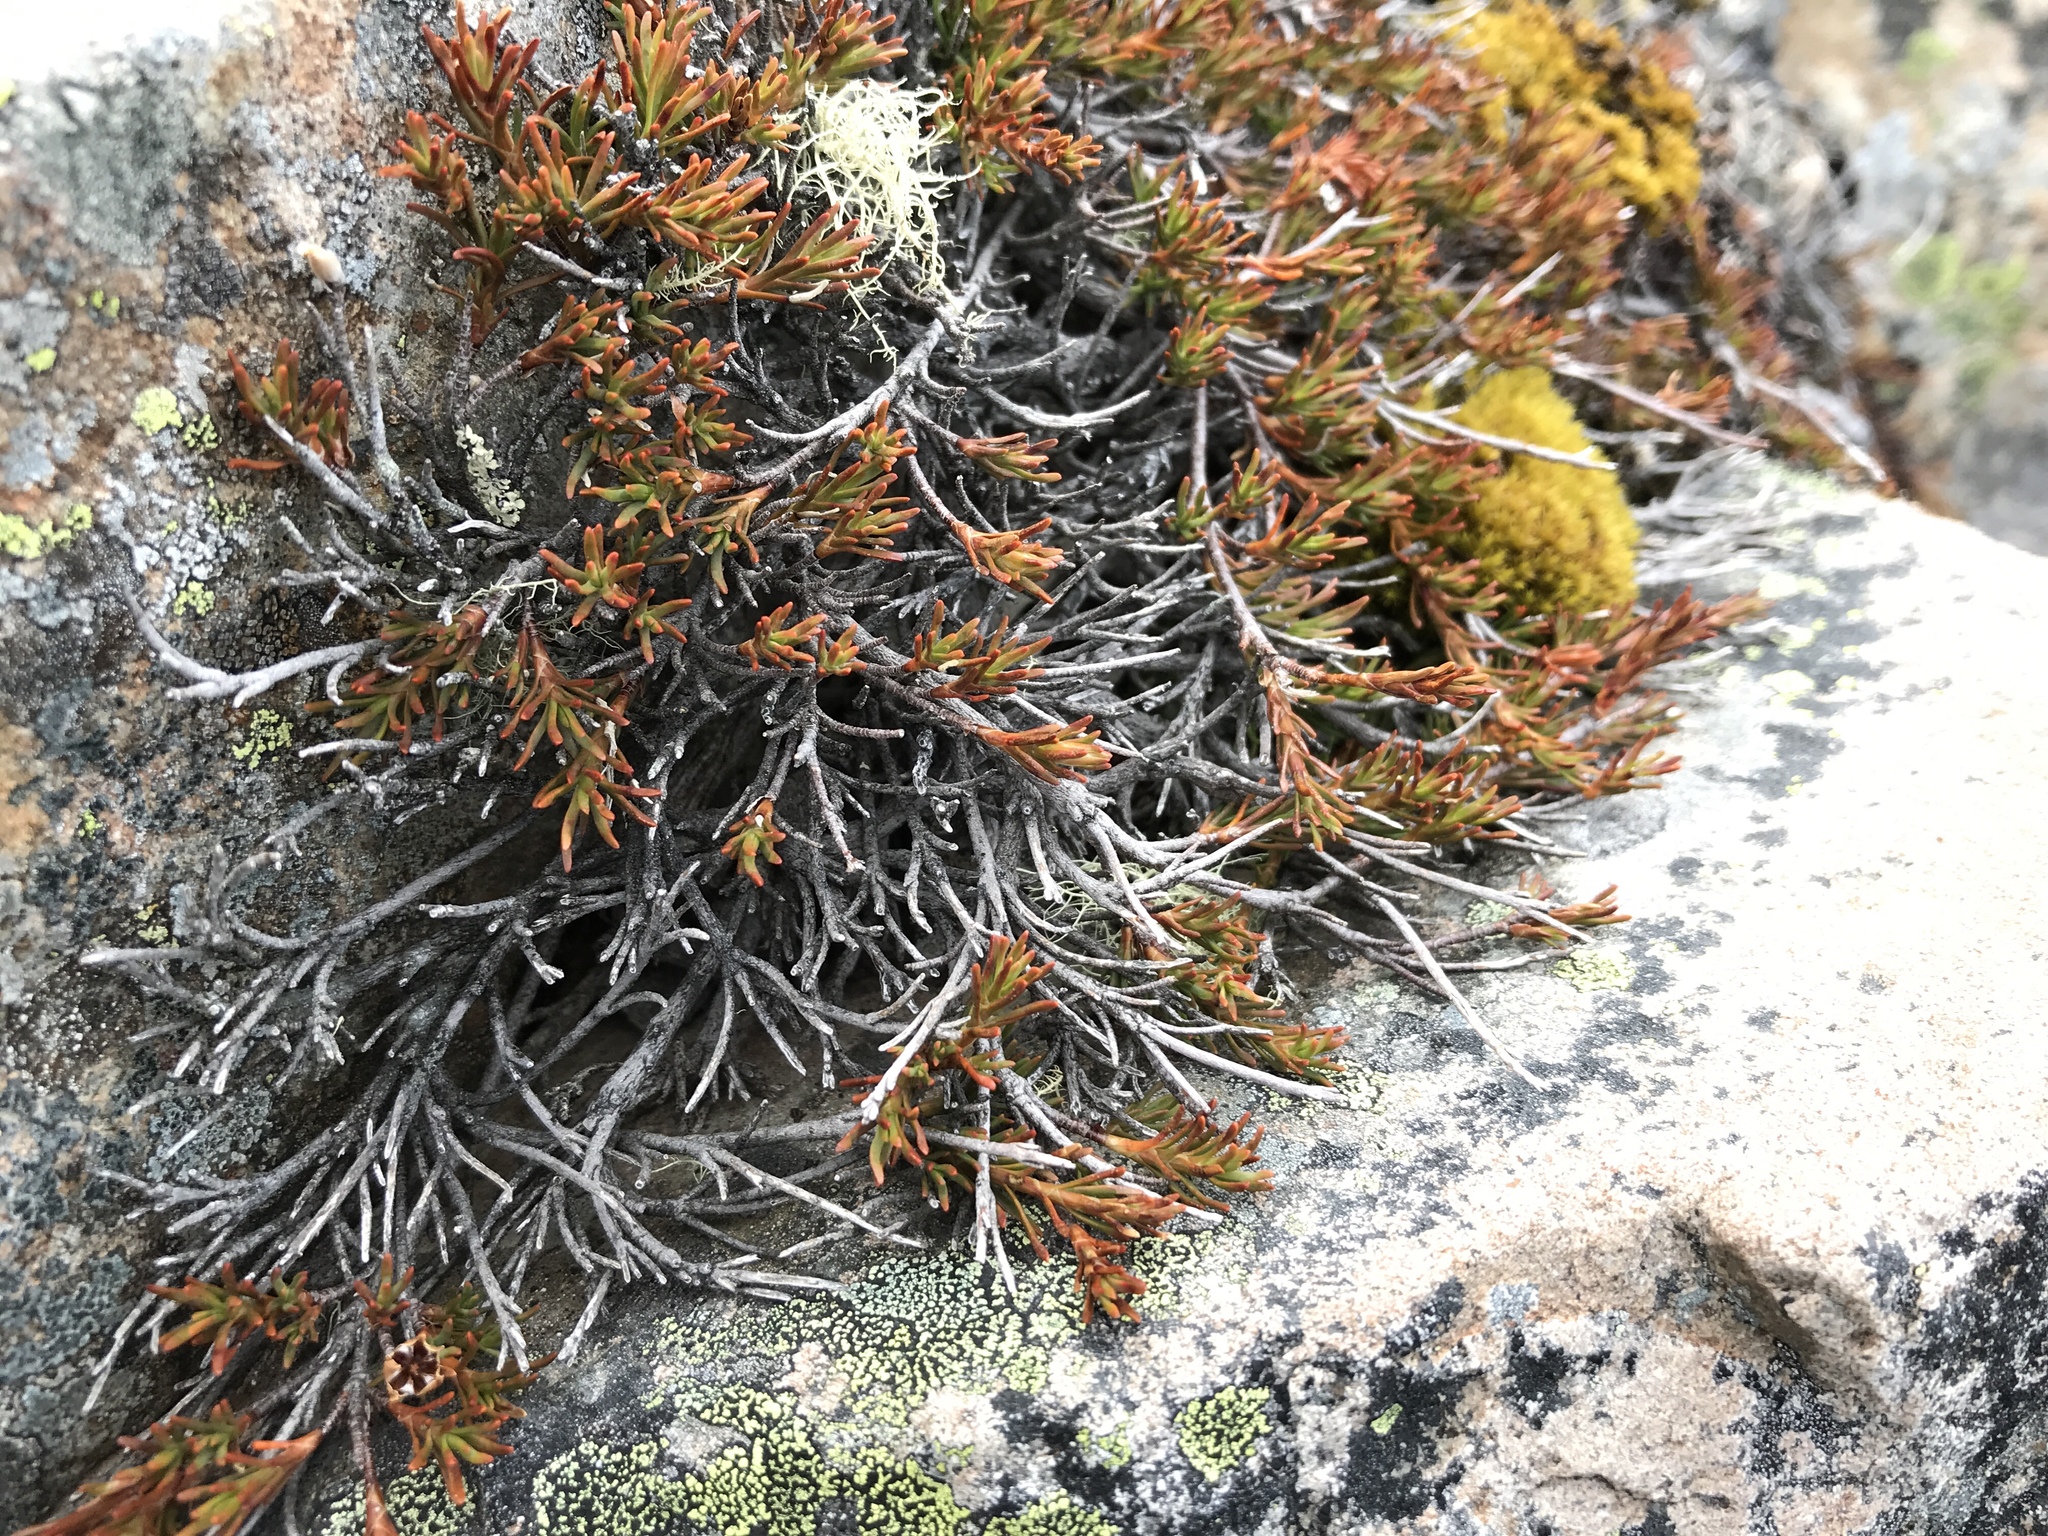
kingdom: Plantae
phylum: Tracheophyta
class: Magnoliopsida
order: Ericales
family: Ericaceae
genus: Dracophyllum
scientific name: Dracophyllum pronum
